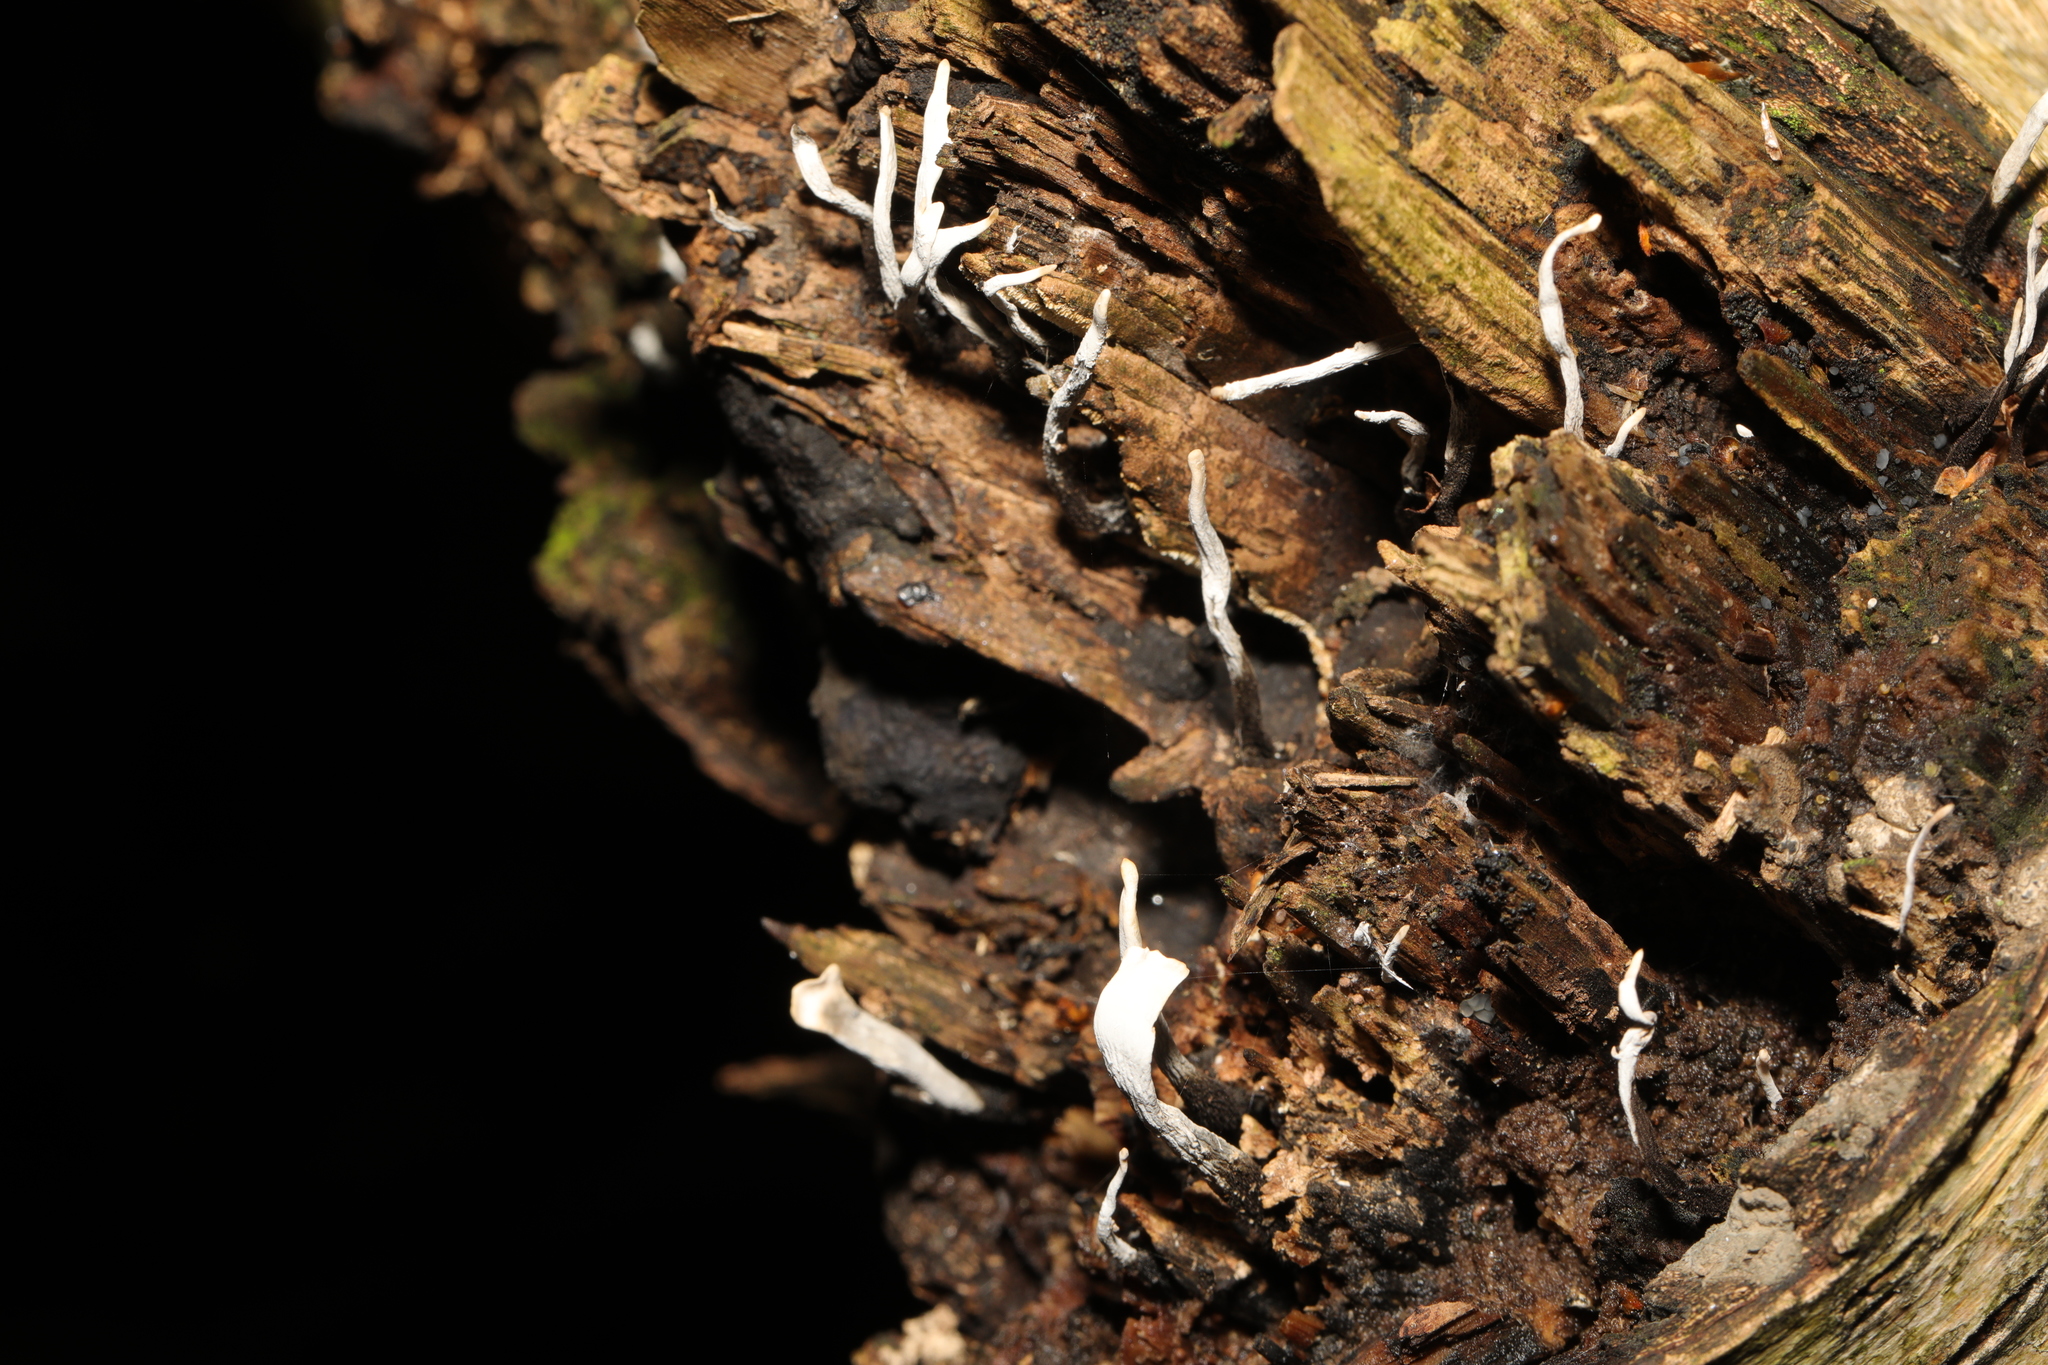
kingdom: Fungi
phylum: Ascomycota
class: Sordariomycetes
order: Xylariales
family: Xylariaceae
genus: Xylaria
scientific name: Xylaria hypoxylon
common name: Candle-snuff fungus
